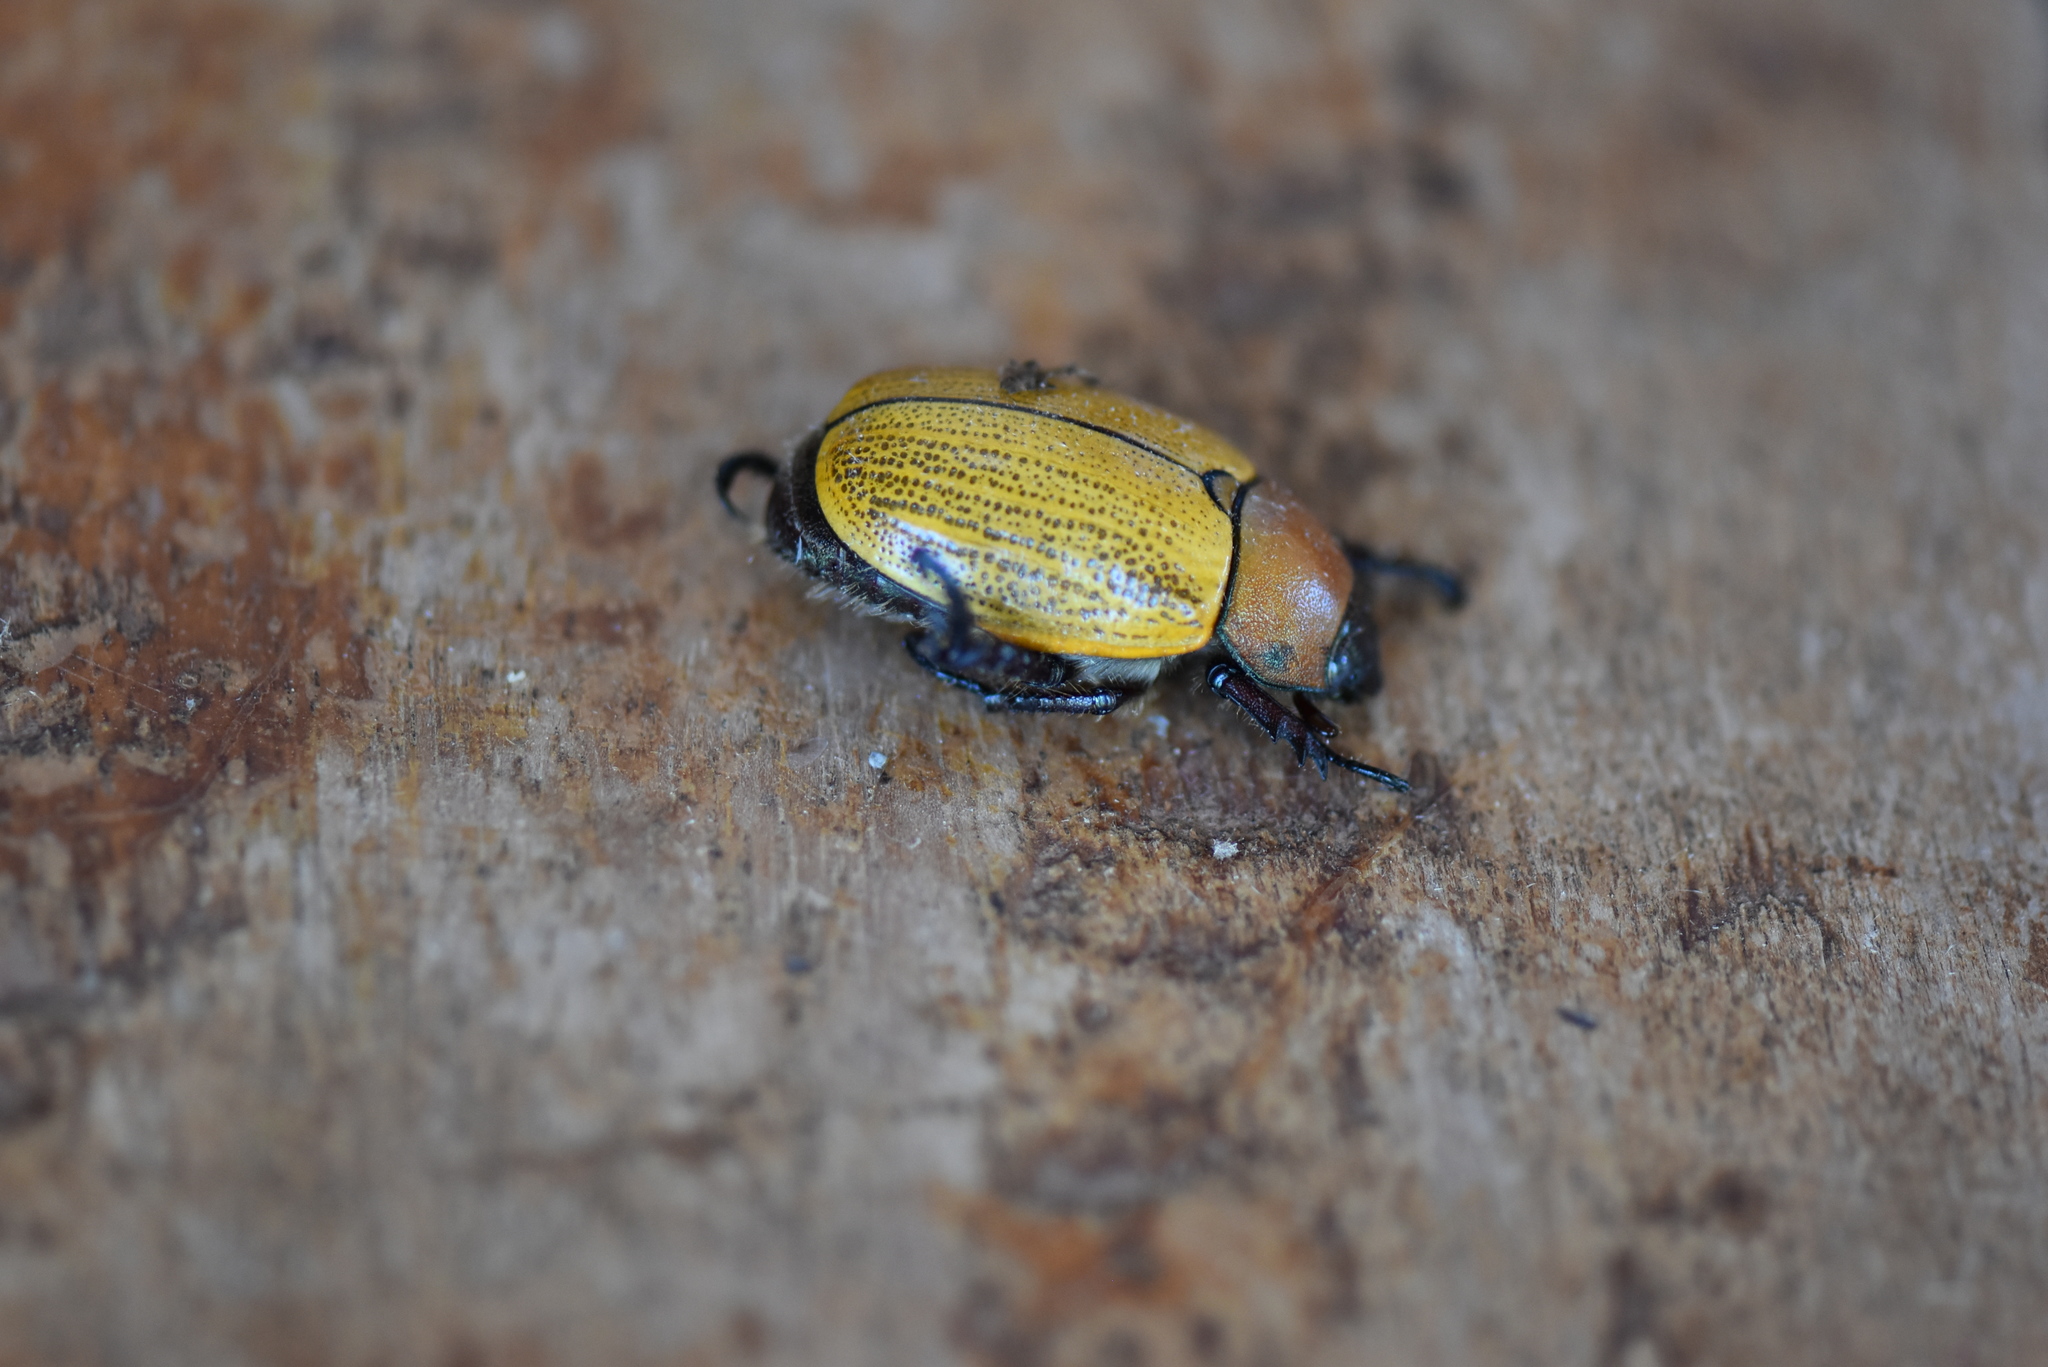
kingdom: Animalia
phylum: Arthropoda
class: Insecta
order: Coleoptera
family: Scarabaeidae
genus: Pelidnota
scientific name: Pelidnota sordida
